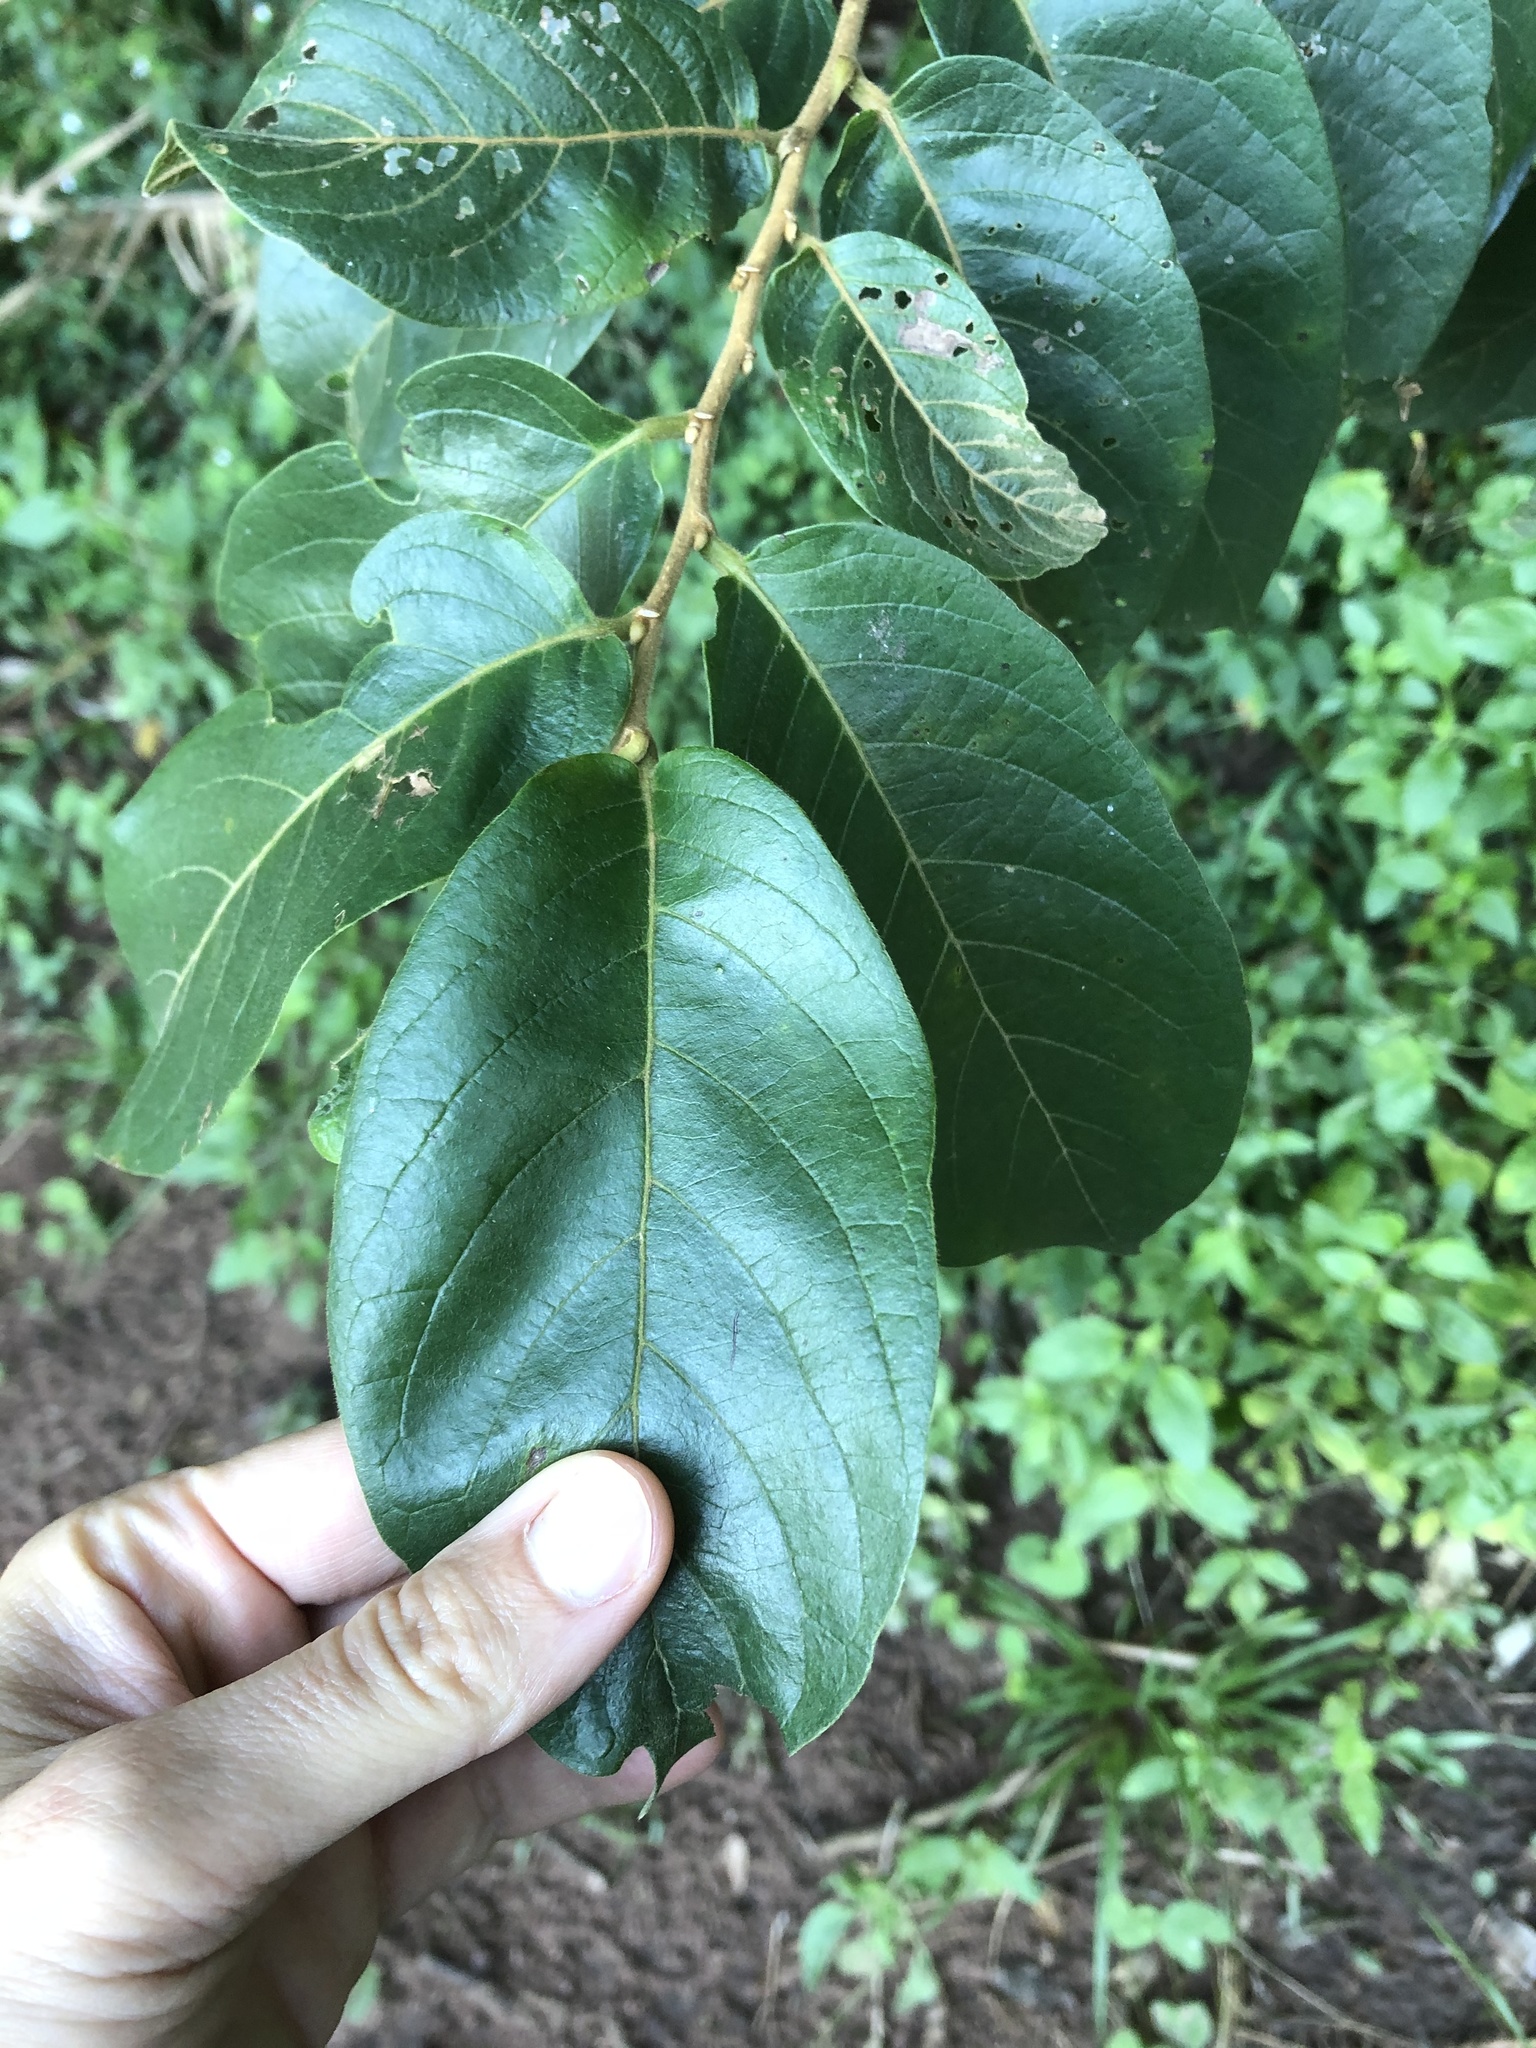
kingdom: Plantae
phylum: Tracheophyta
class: Magnoliopsida
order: Malpighiales
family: Phyllanthaceae
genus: Antidesma
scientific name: Antidesma venosum
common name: Tassel-berry
